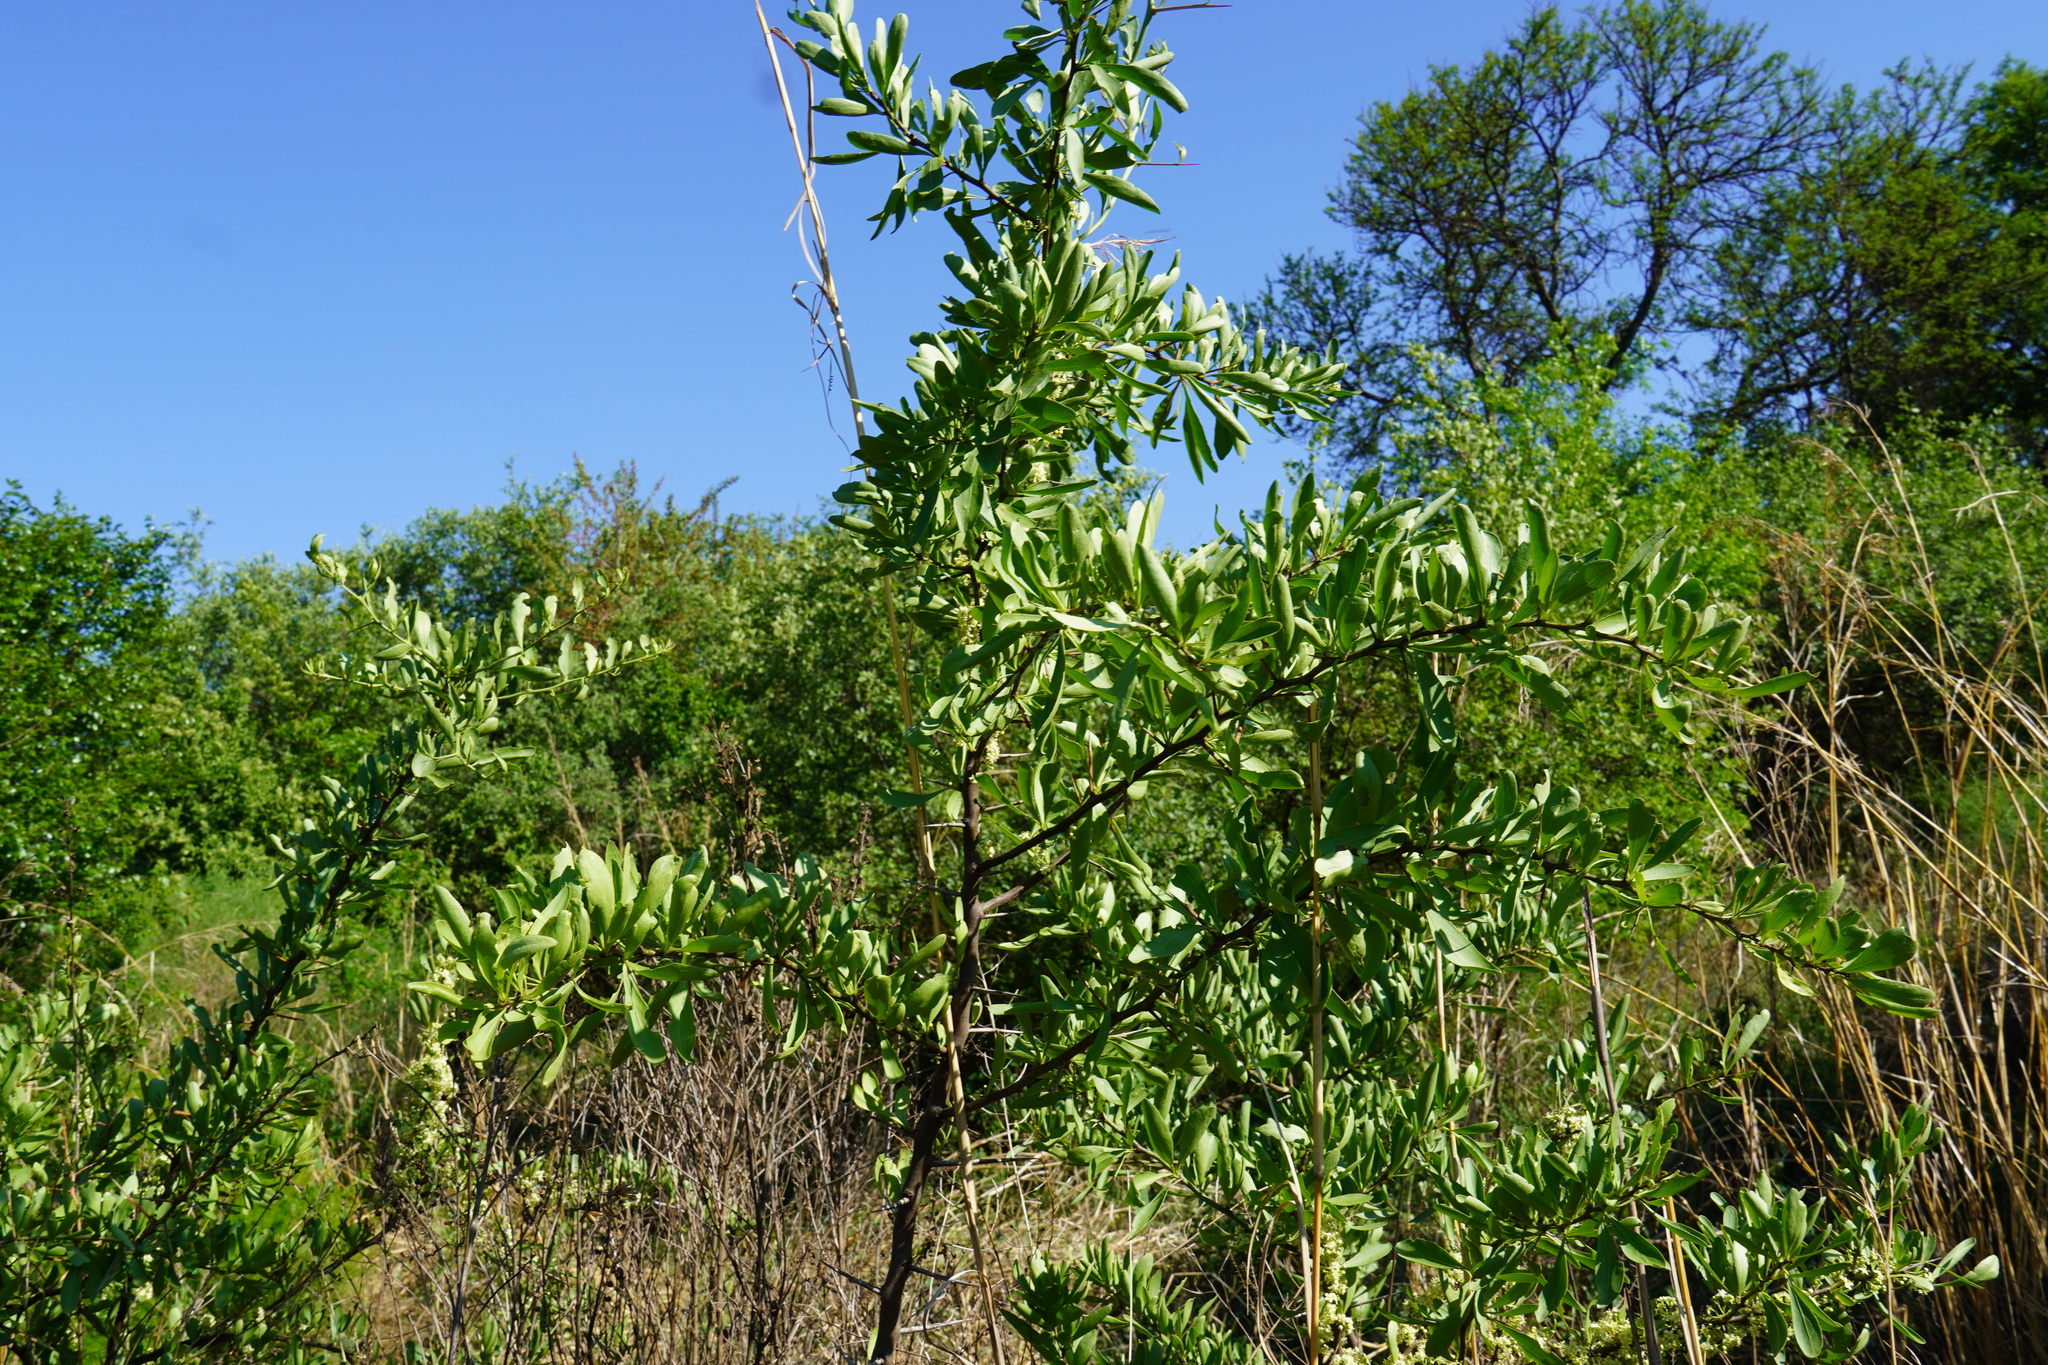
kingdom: Plantae
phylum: Tracheophyta
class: Magnoliopsida
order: Celastrales
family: Celastraceae
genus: Gymnosporia
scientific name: Gymnosporia buxifolia
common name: Common spike-thorn
